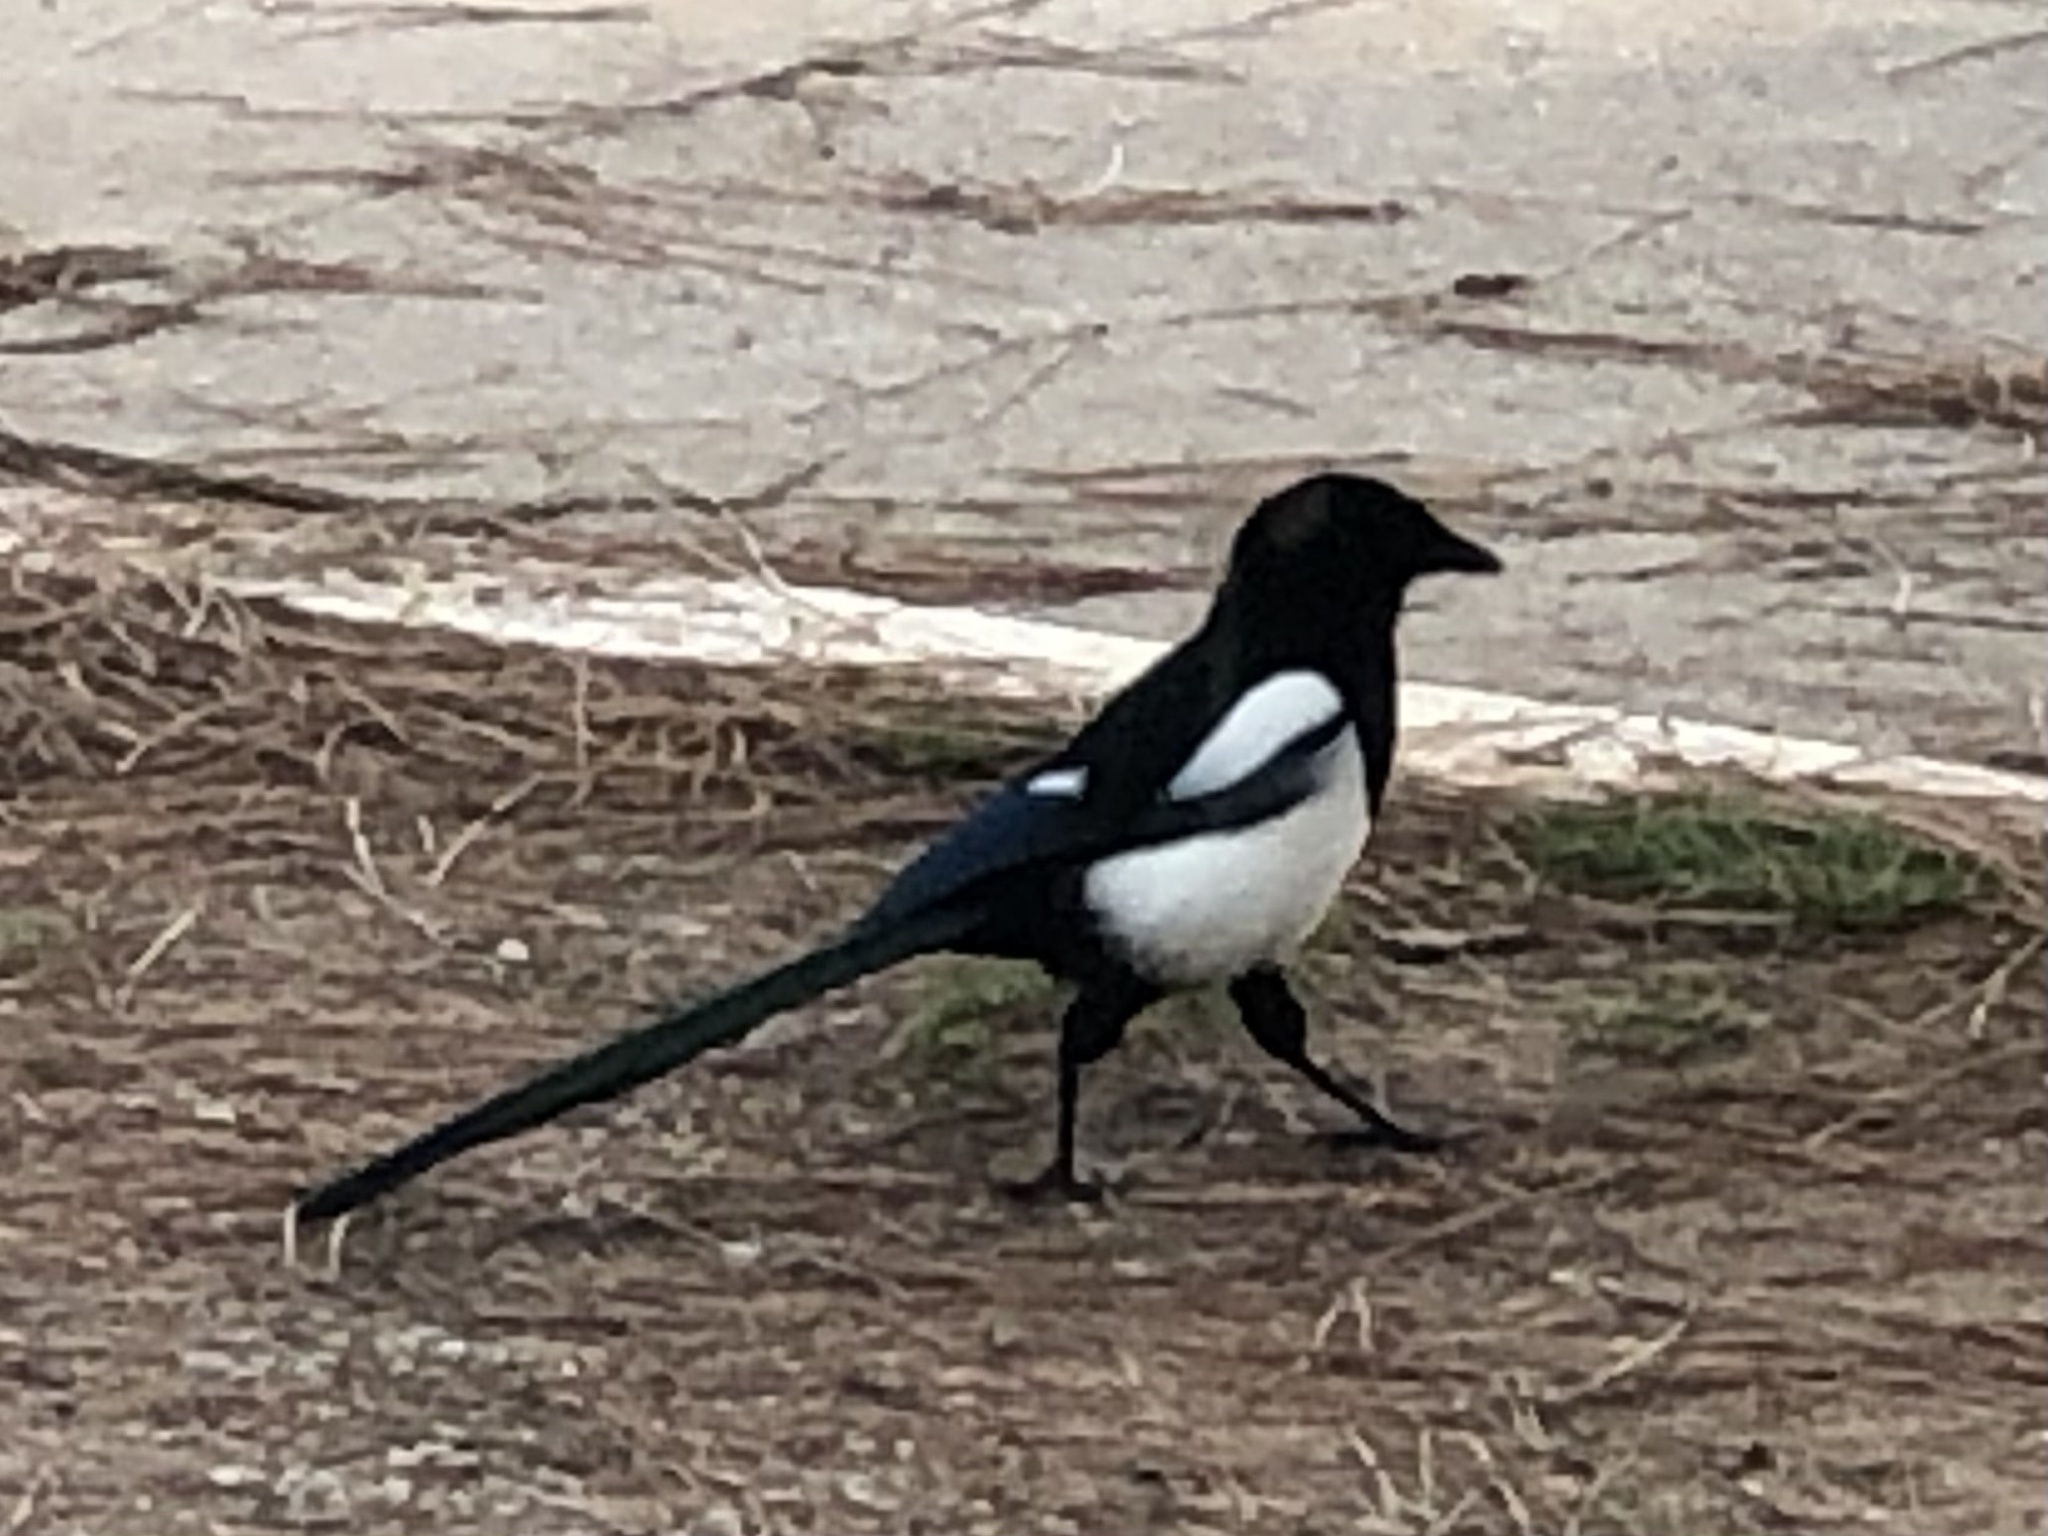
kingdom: Animalia
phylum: Chordata
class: Aves
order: Passeriformes
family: Corvidae
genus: Pica
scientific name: Pica pica
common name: Eurasian magpie
